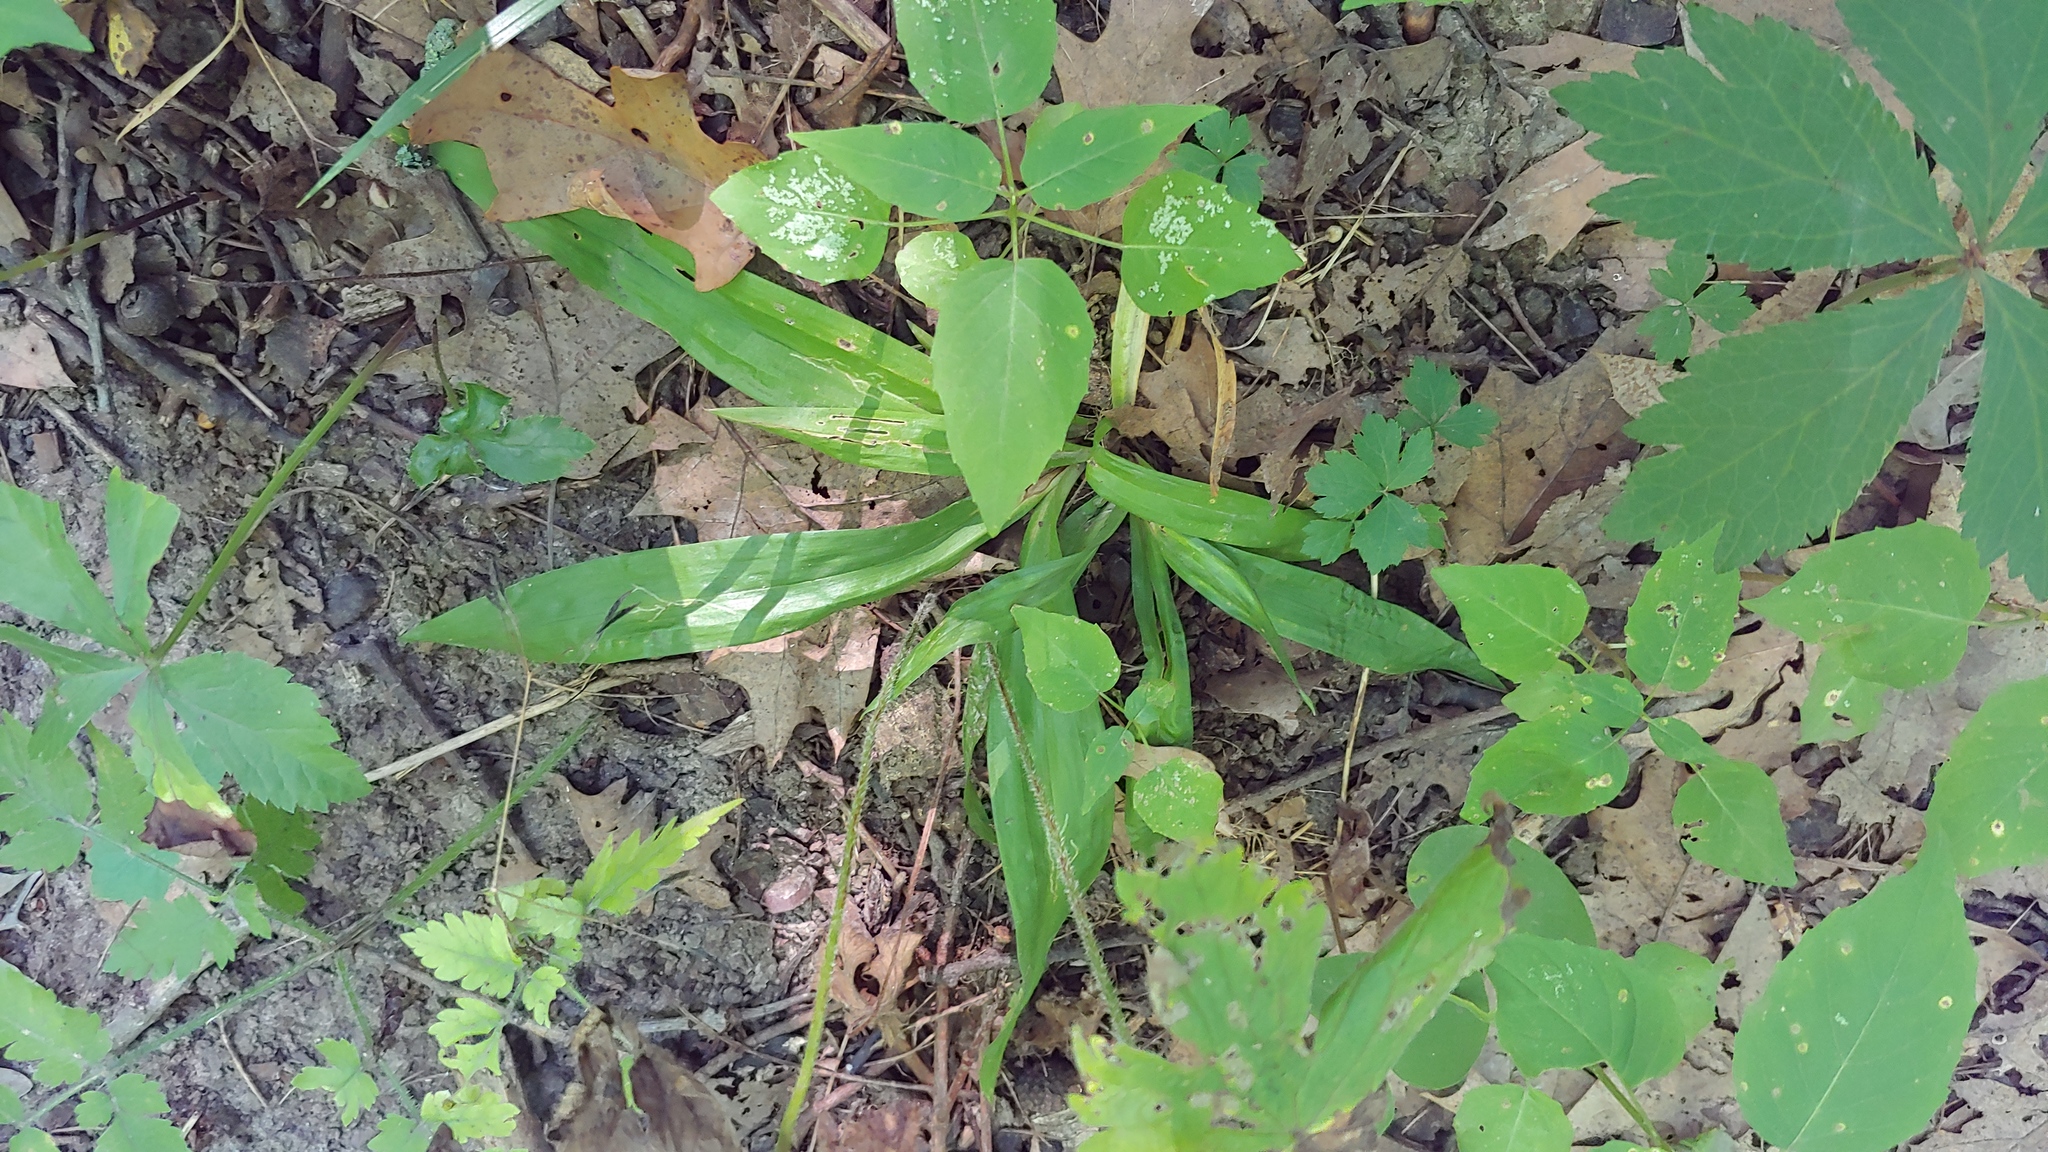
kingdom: Plantae
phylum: Tracheophyta
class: Liliopsida
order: Poales
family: Cyperaceae
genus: Carex
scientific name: Carex albursina
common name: Blunt-scale wood sedge
